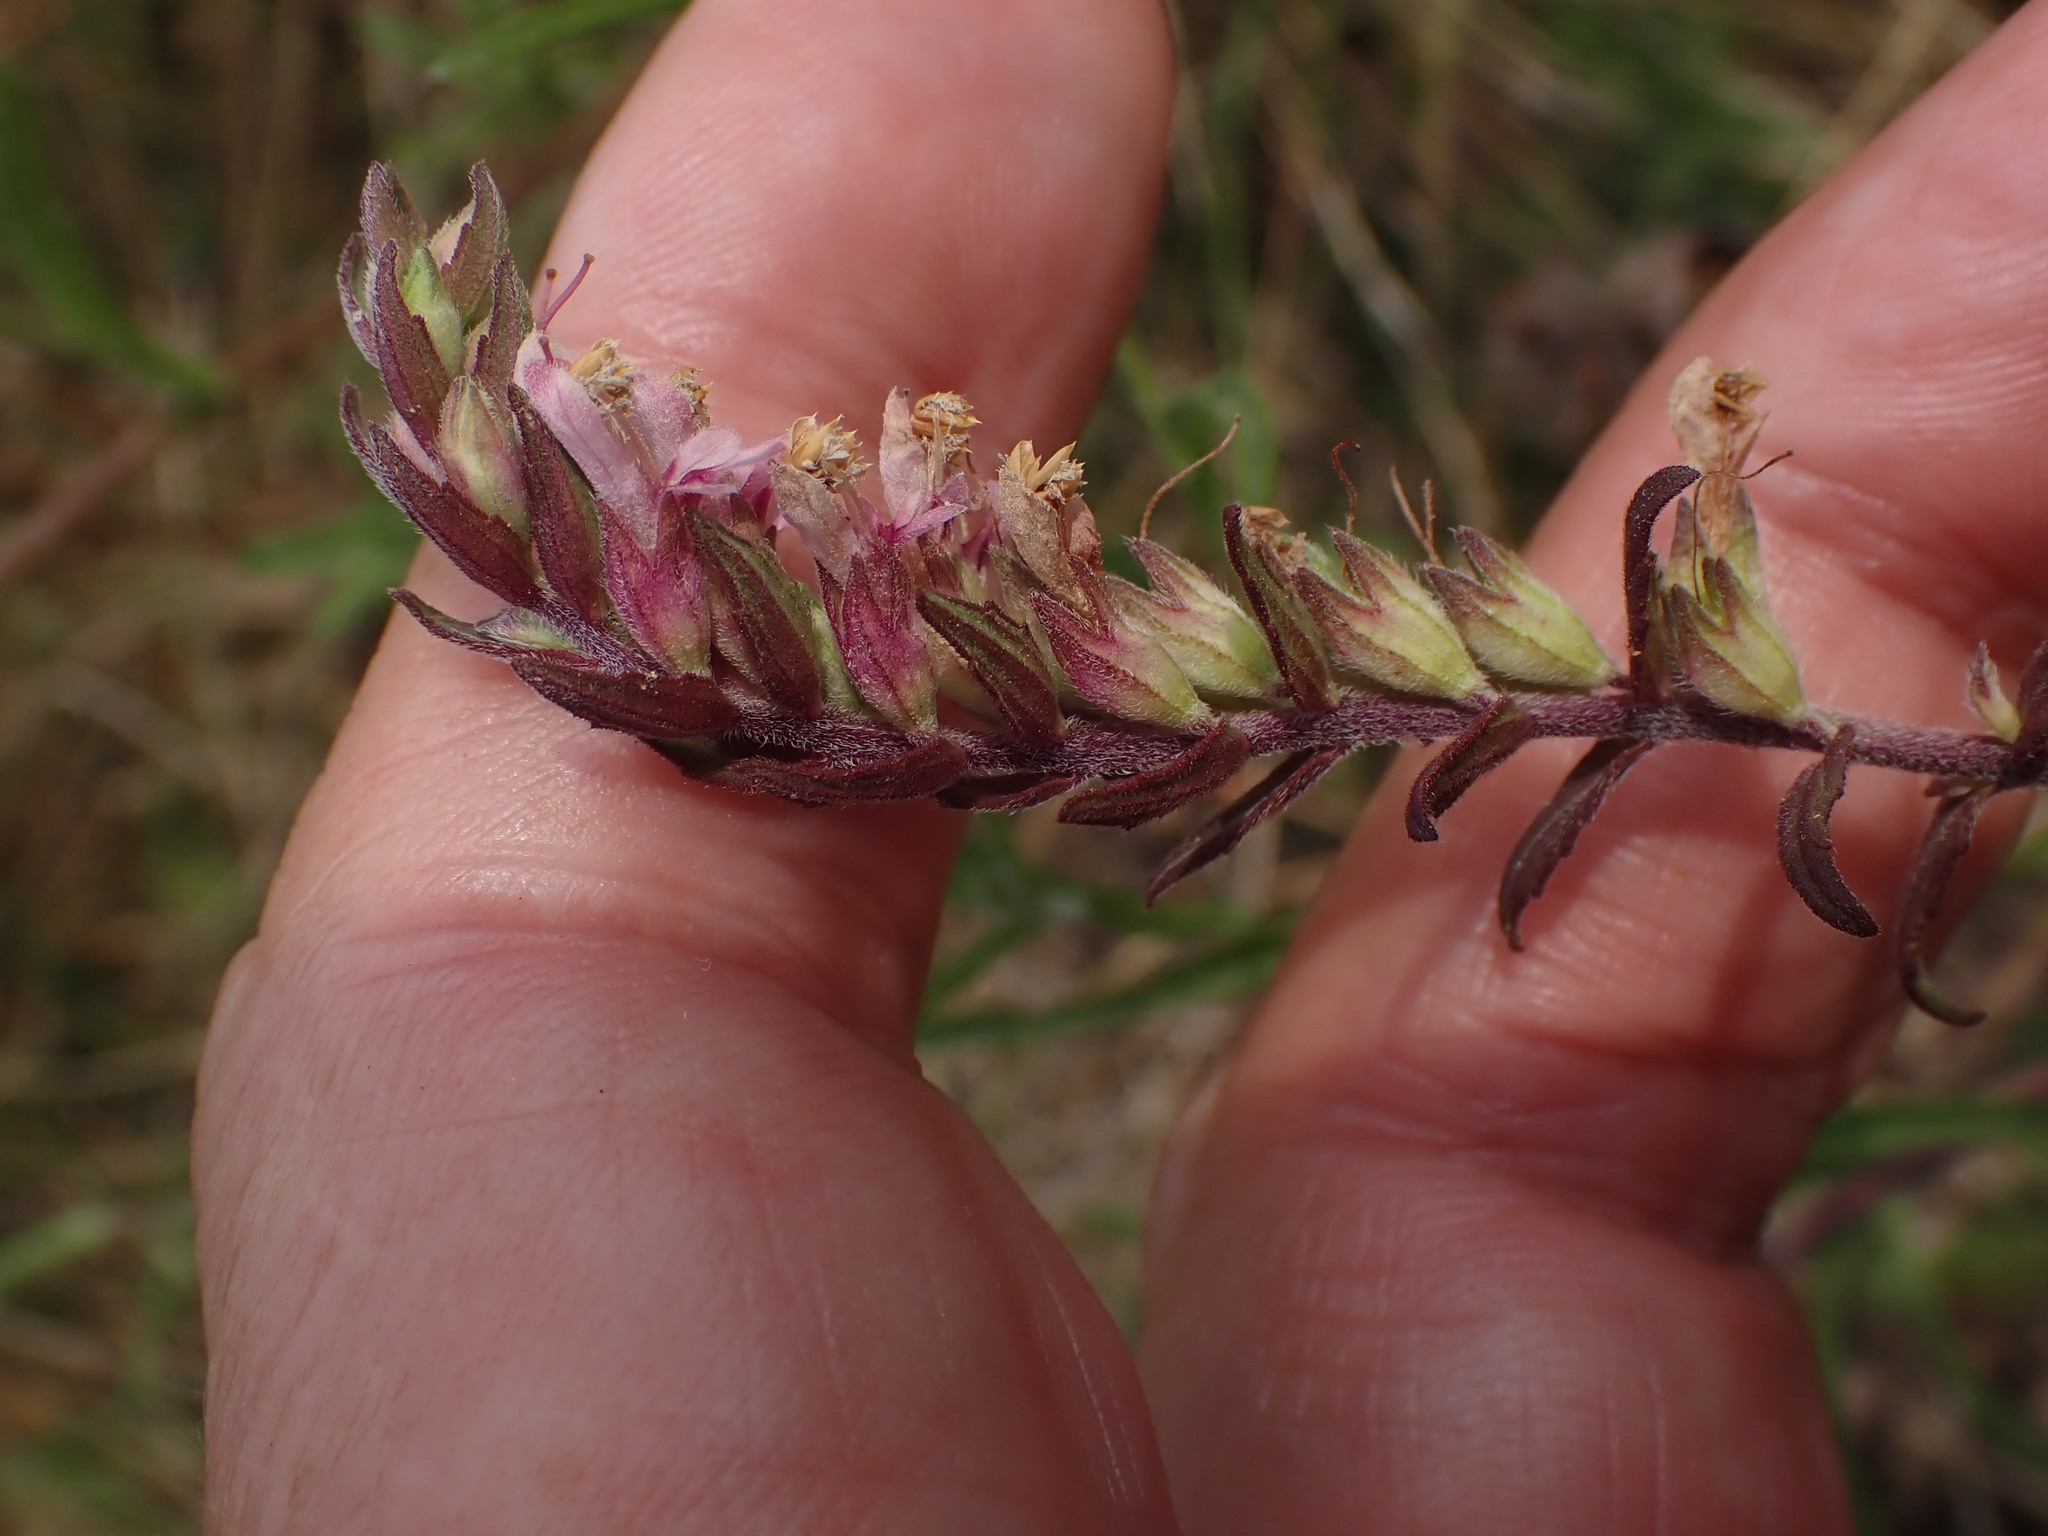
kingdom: Plantae
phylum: Tracheophyta
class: Magnoliopsida
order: Lamiales
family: Orobanchaceae
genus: Odontites
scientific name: Odontites vulgaris
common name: Broomrape
